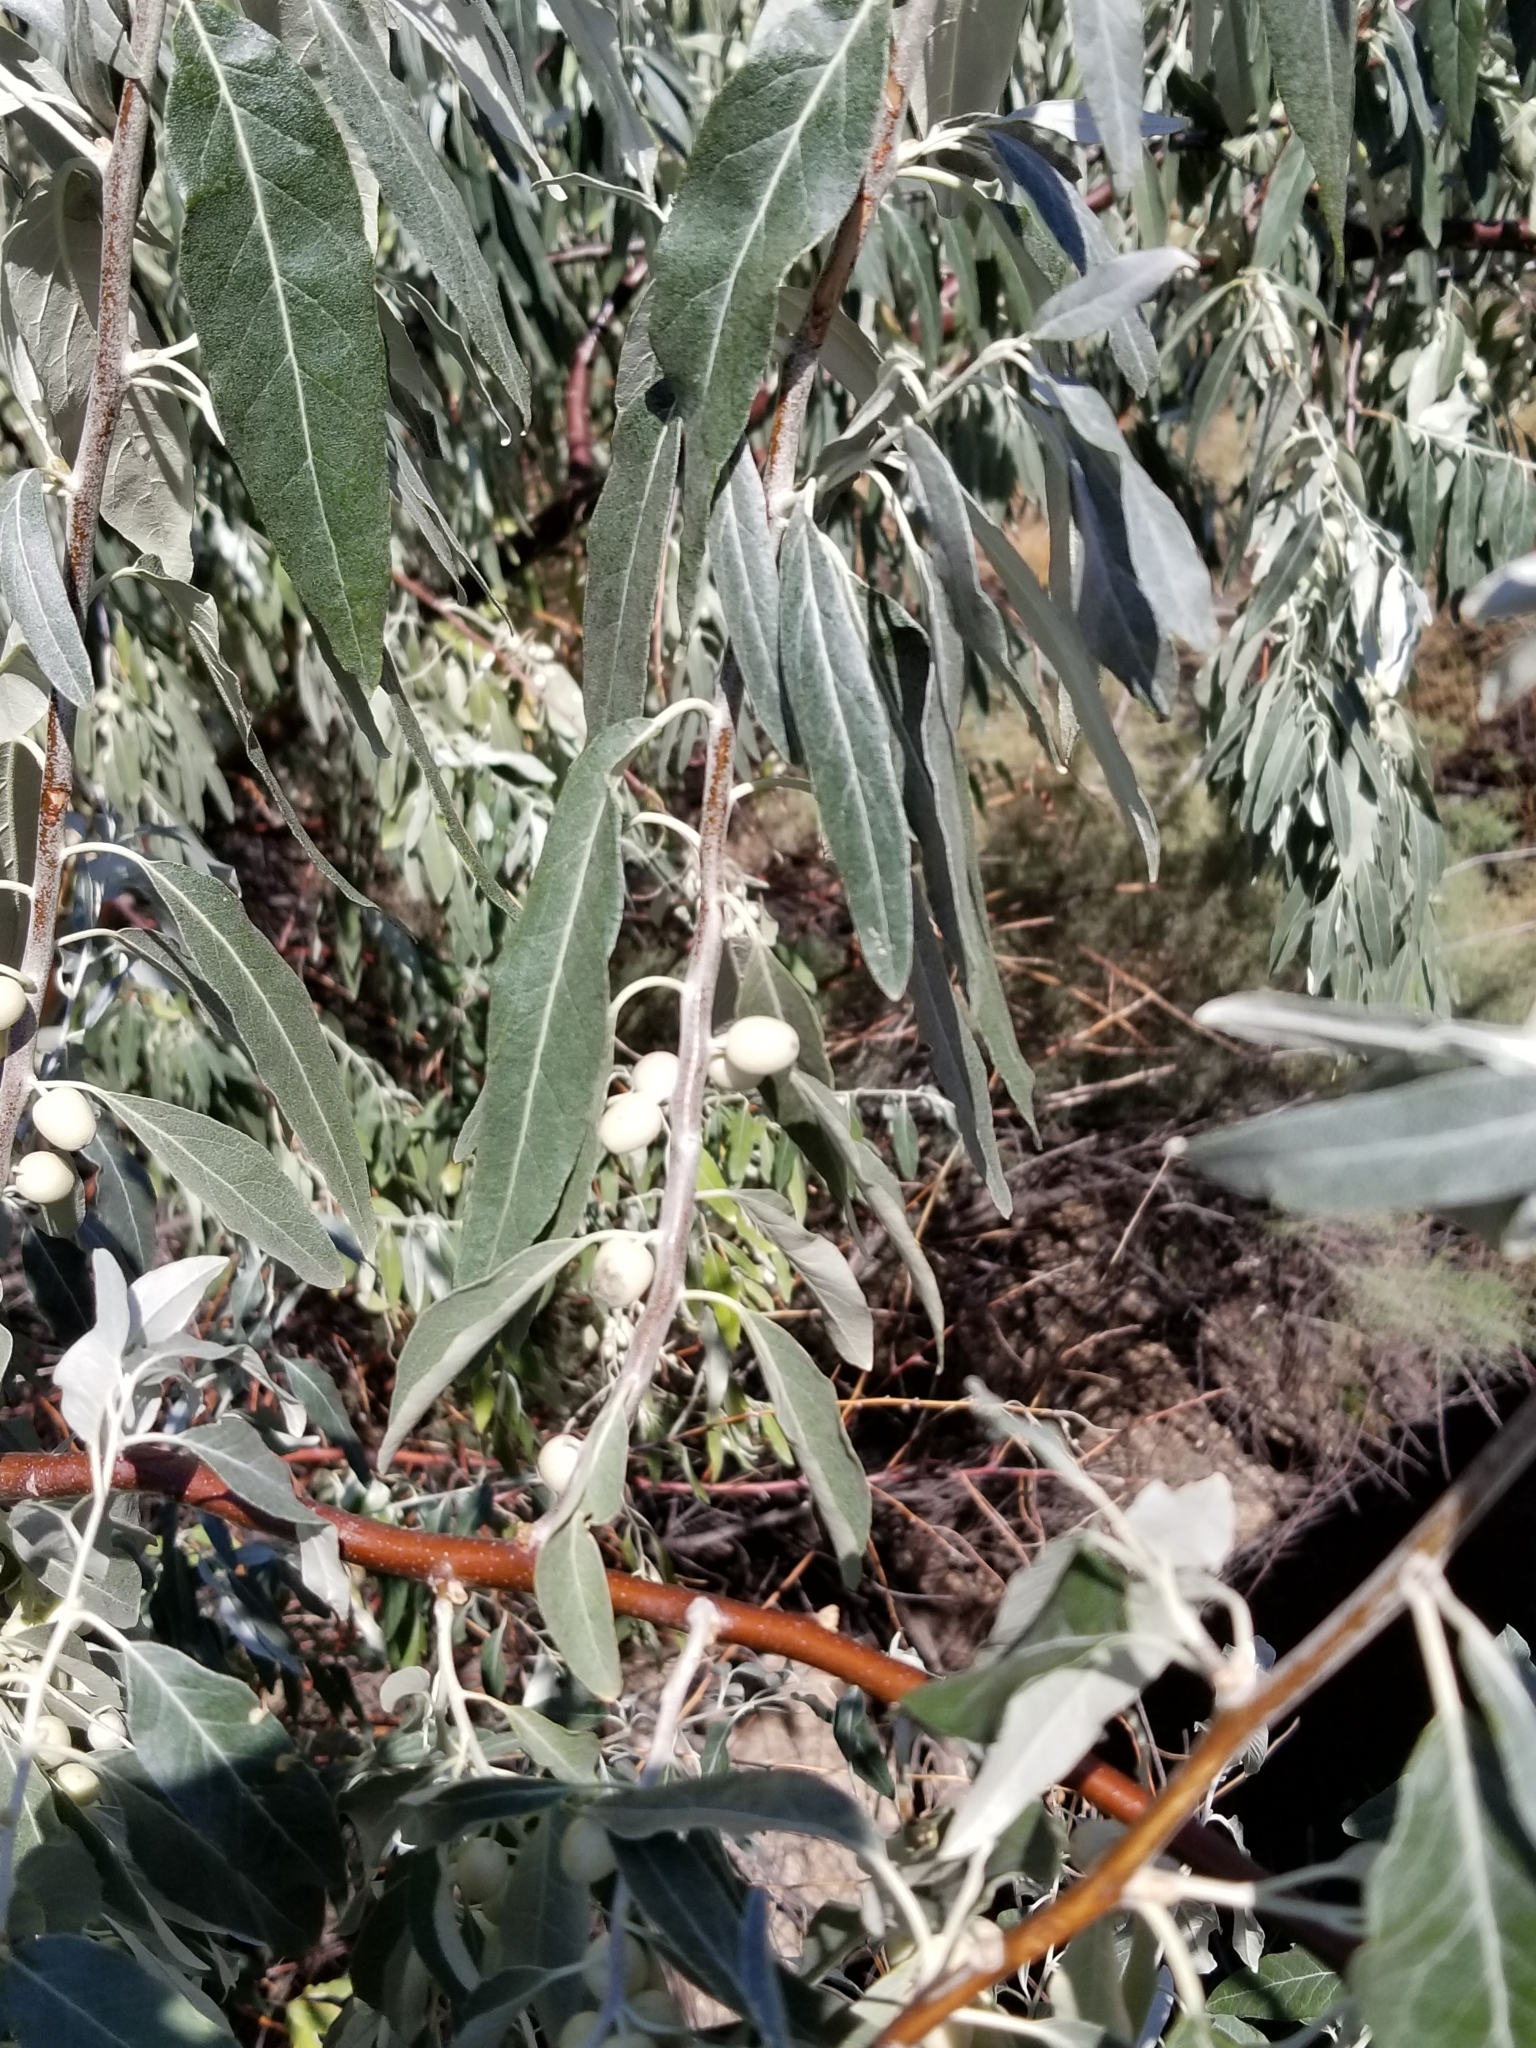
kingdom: Plantae
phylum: Tracheophyta
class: Magnoliopsida
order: Rosales
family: Elaeagnaceae
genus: Elaeagnus
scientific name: Elaeagnus angustifolia
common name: Russian olive
